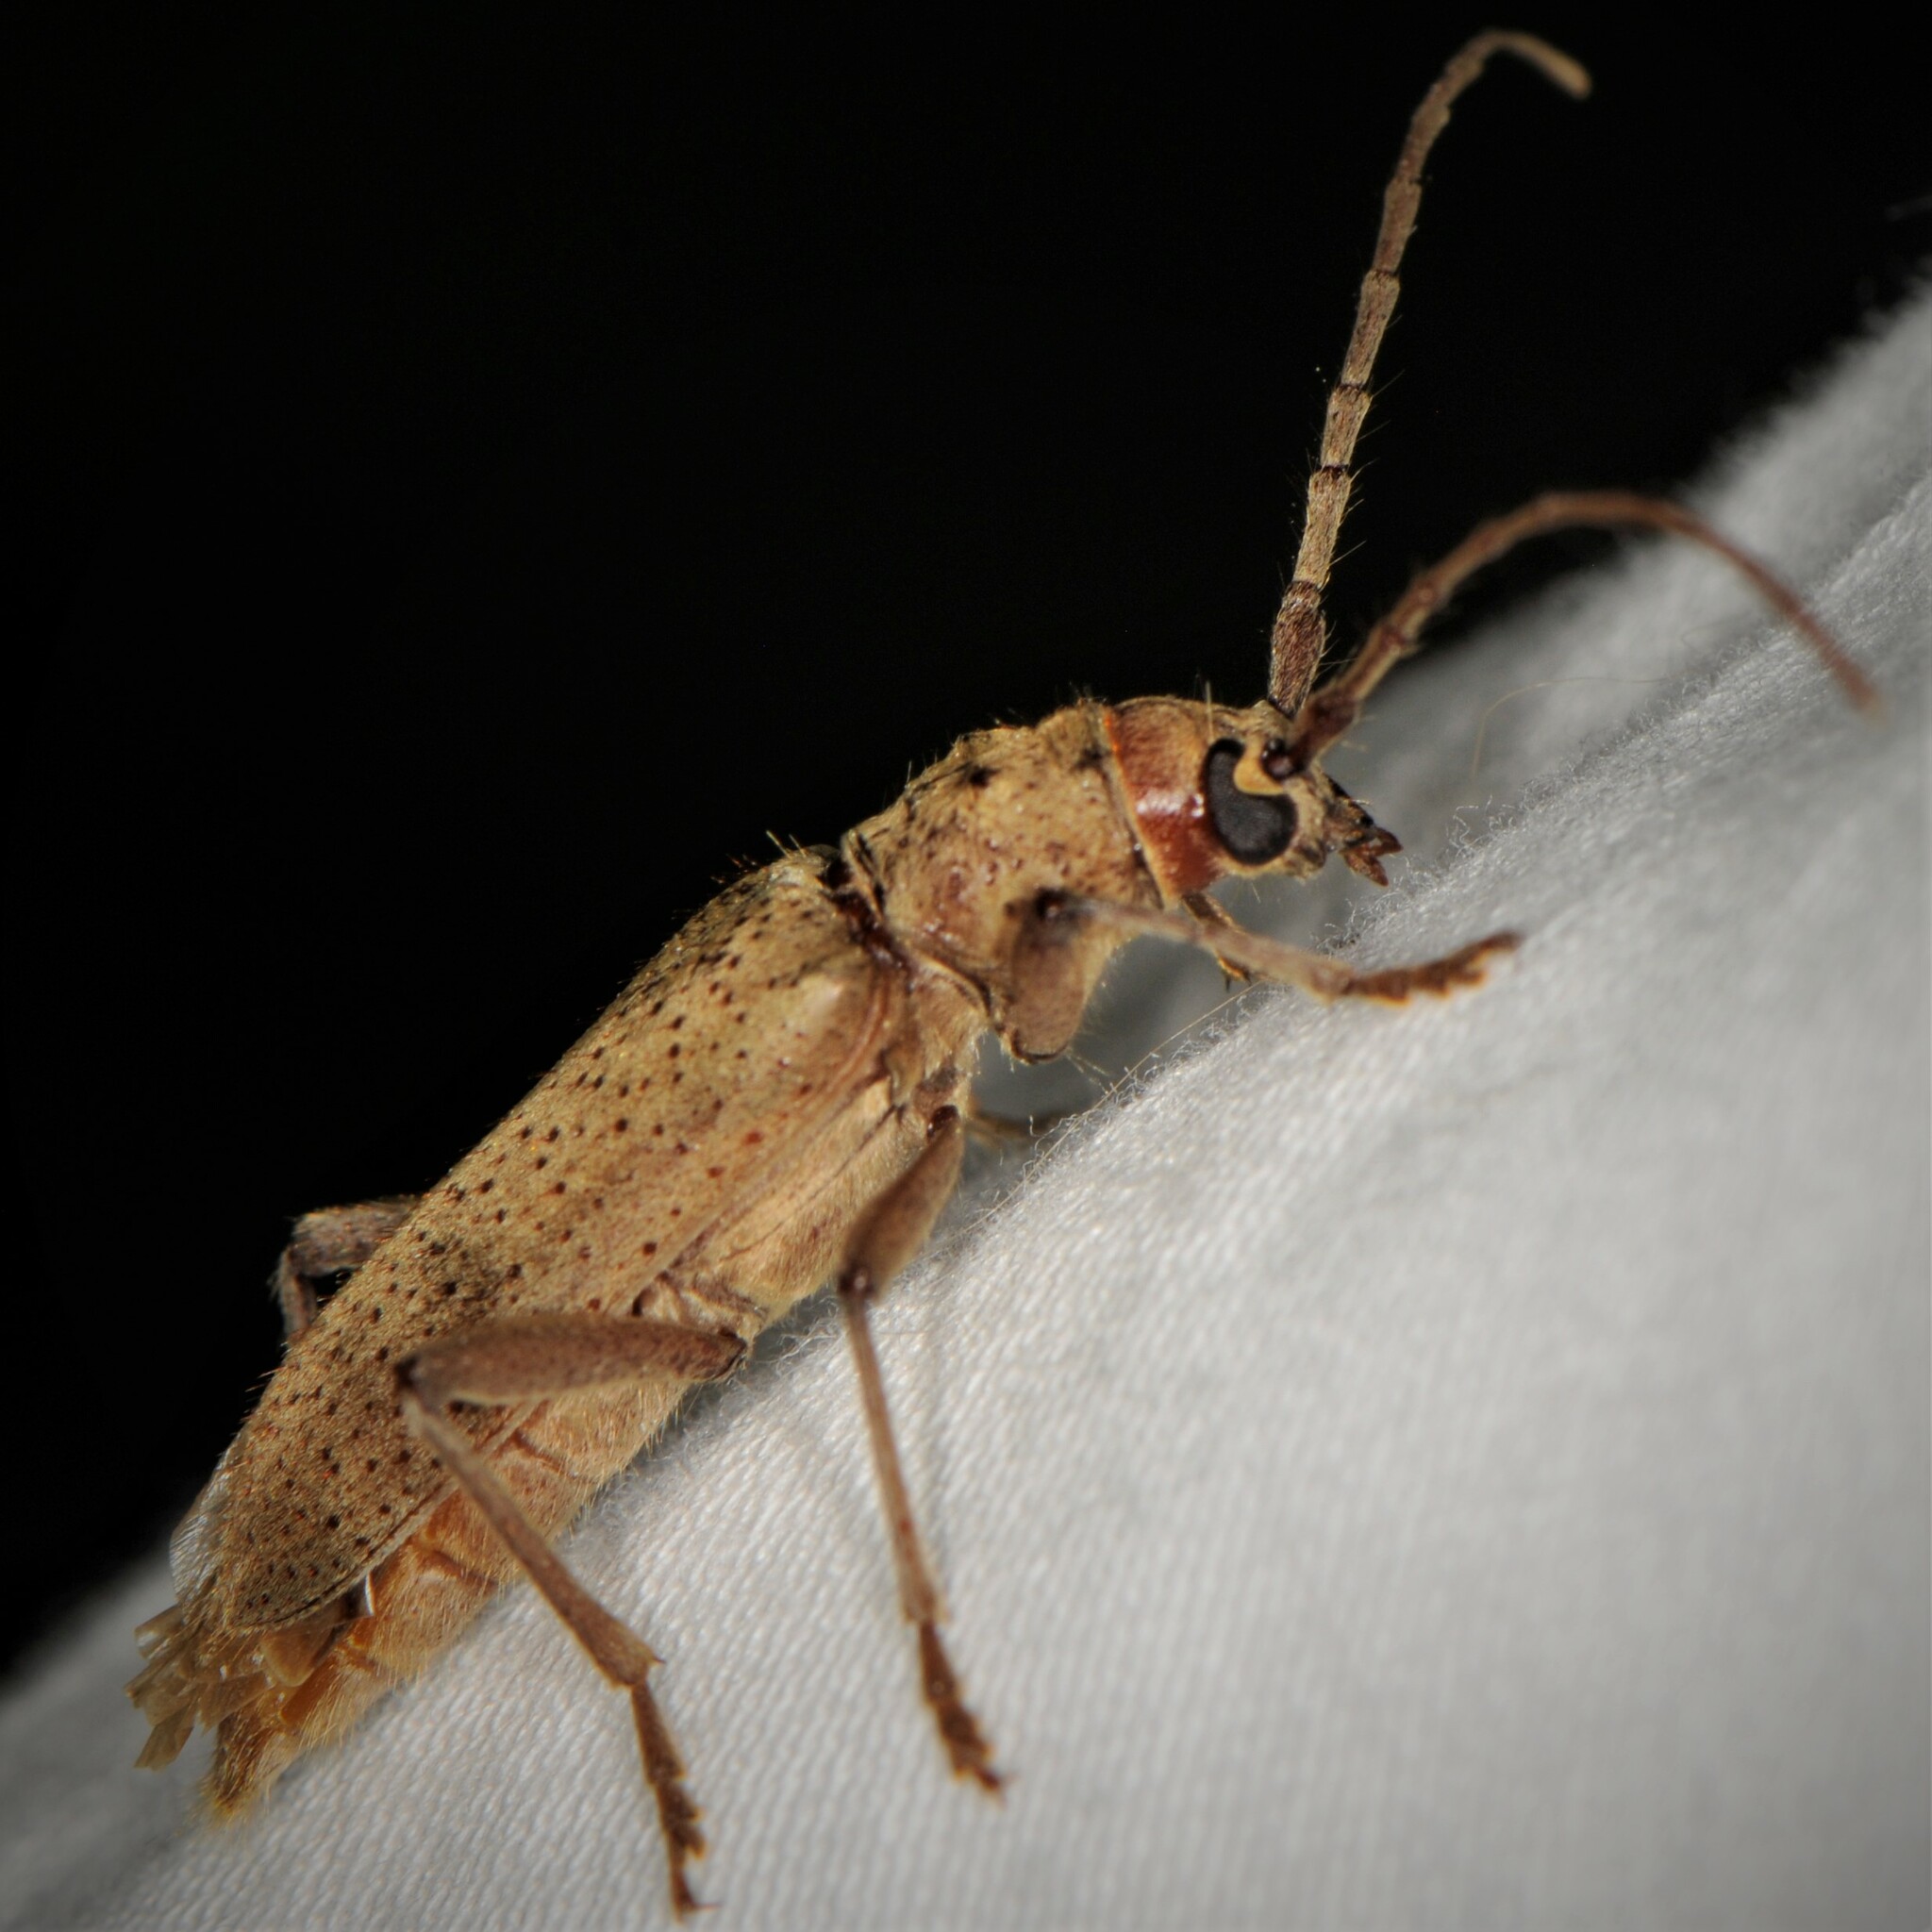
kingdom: Animalia
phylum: Arthropoda
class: Insecta
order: Coleoptera
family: Cerambycidae
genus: Brothylus
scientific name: Brothylus gemmulatus
